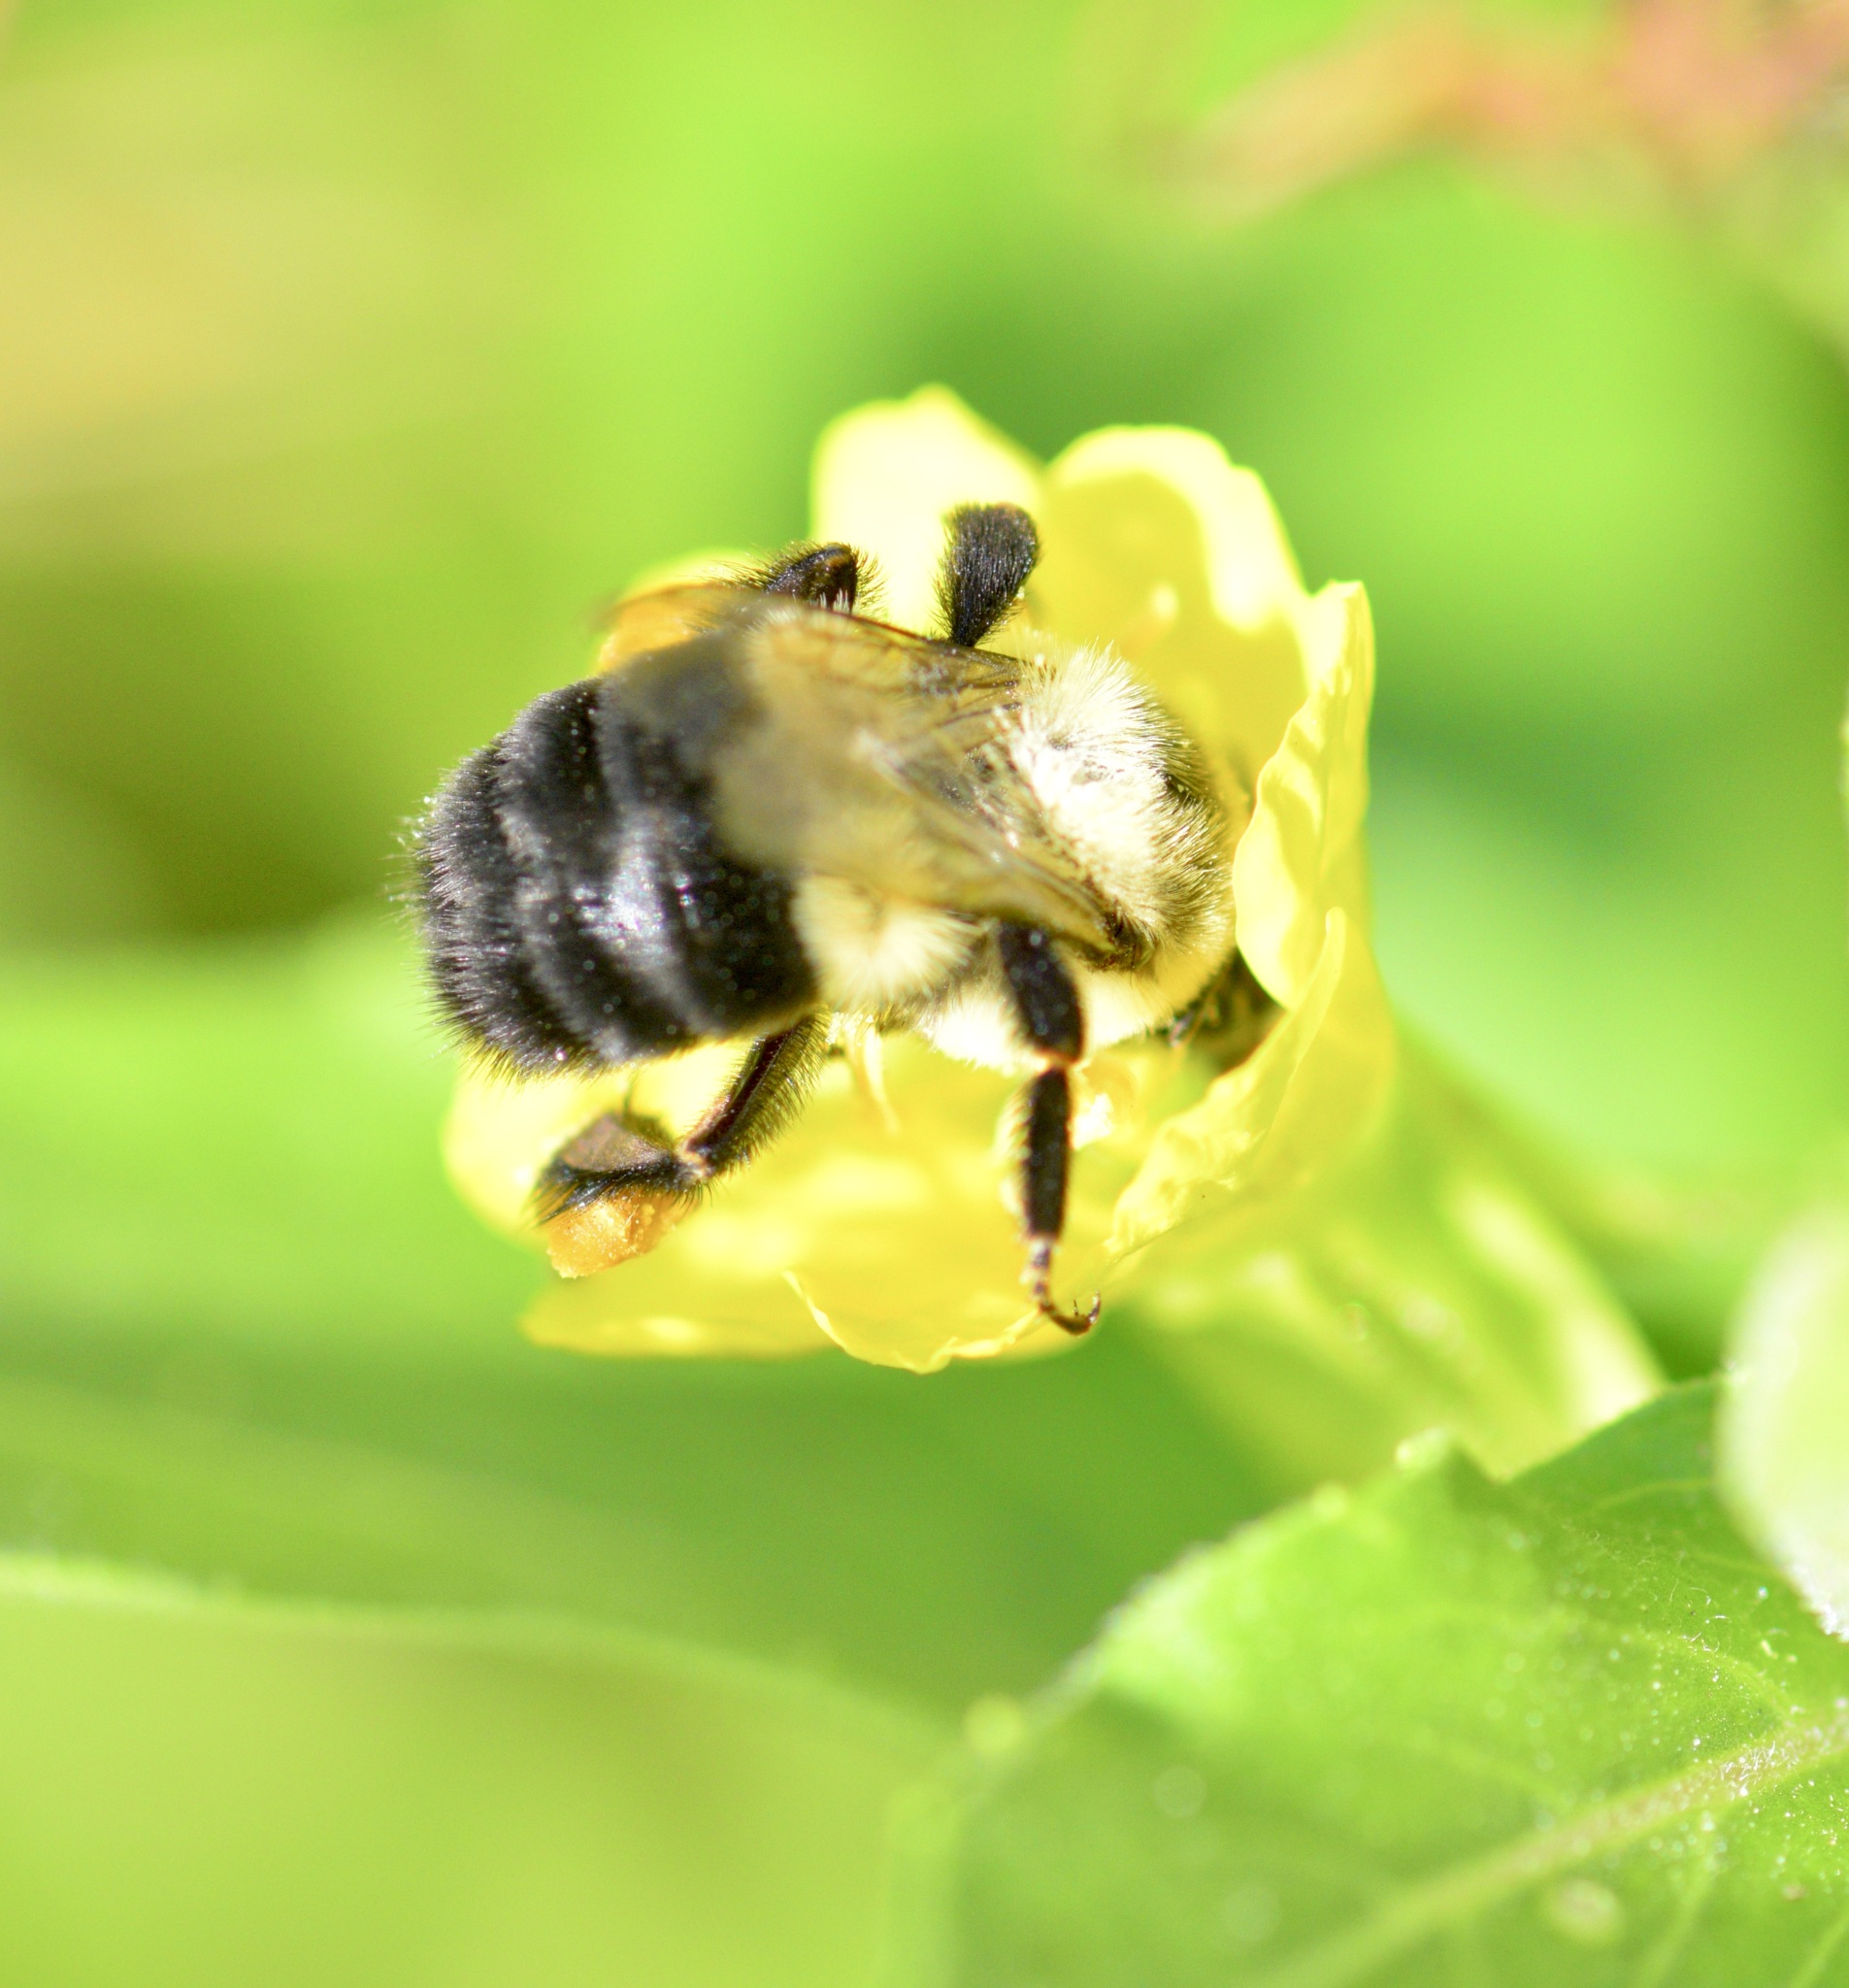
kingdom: Animalia
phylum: Arthropoda
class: Insecta
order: Hymenoptera
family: Apidae
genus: Bombus
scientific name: Bombus impatiens
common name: Common eastern bumble bee
